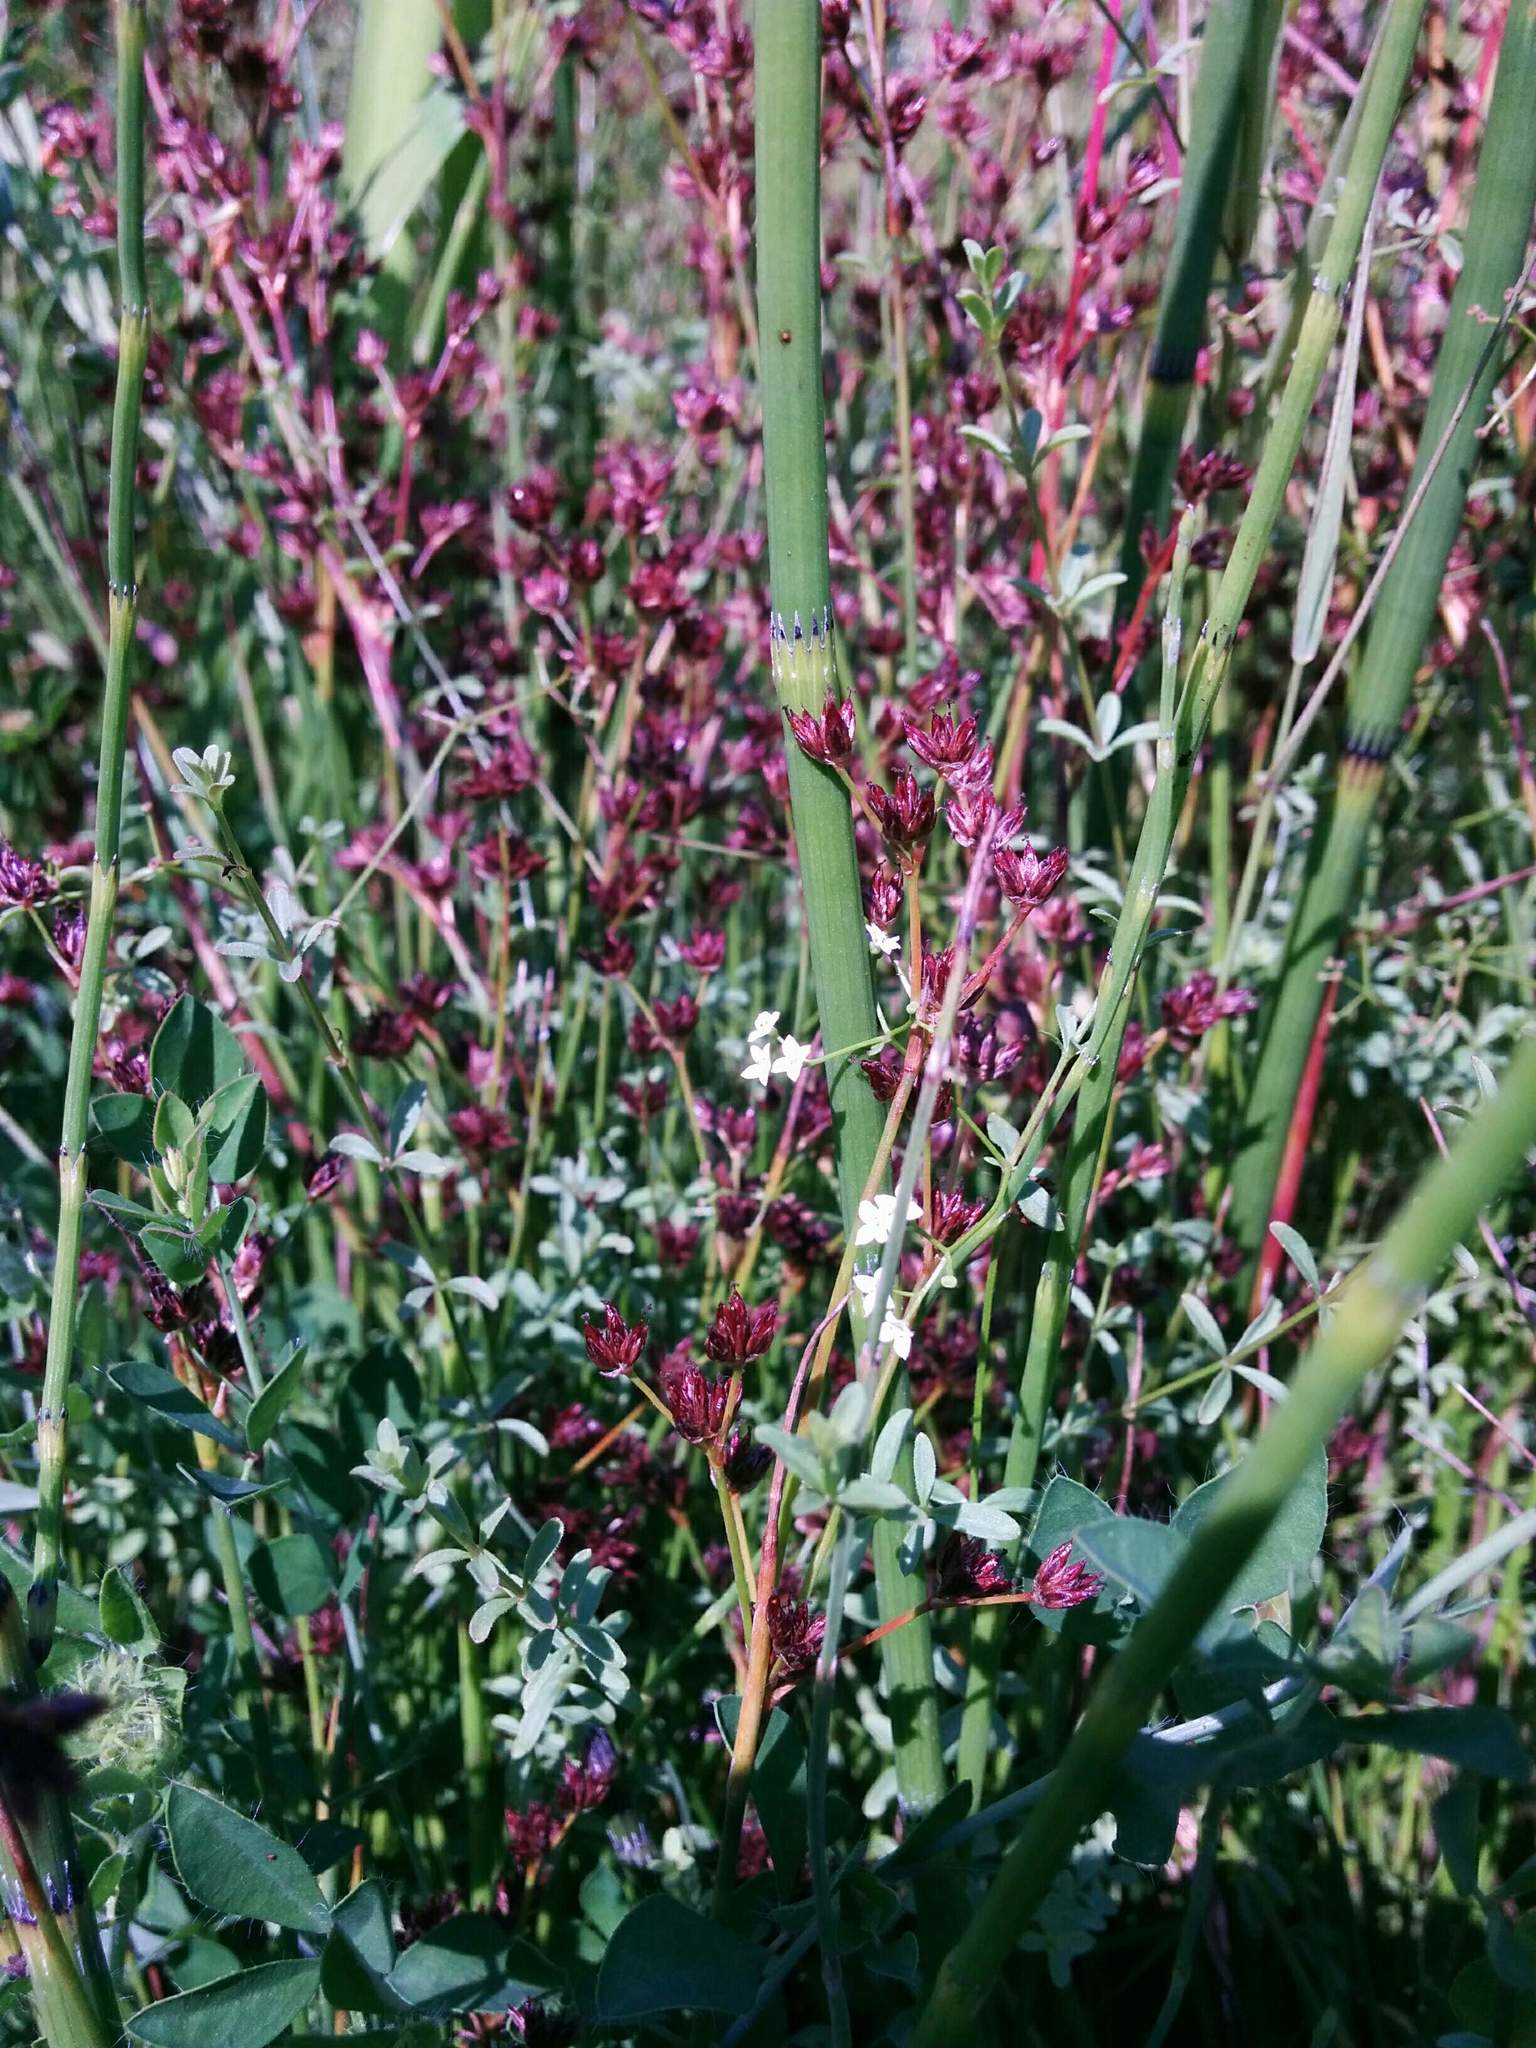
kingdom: Plantae
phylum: Tracheophyta
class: Magnoliopsida
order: Gentianales
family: Rubiaceae
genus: Galium
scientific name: Galium trifidum
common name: Small bedstraw
